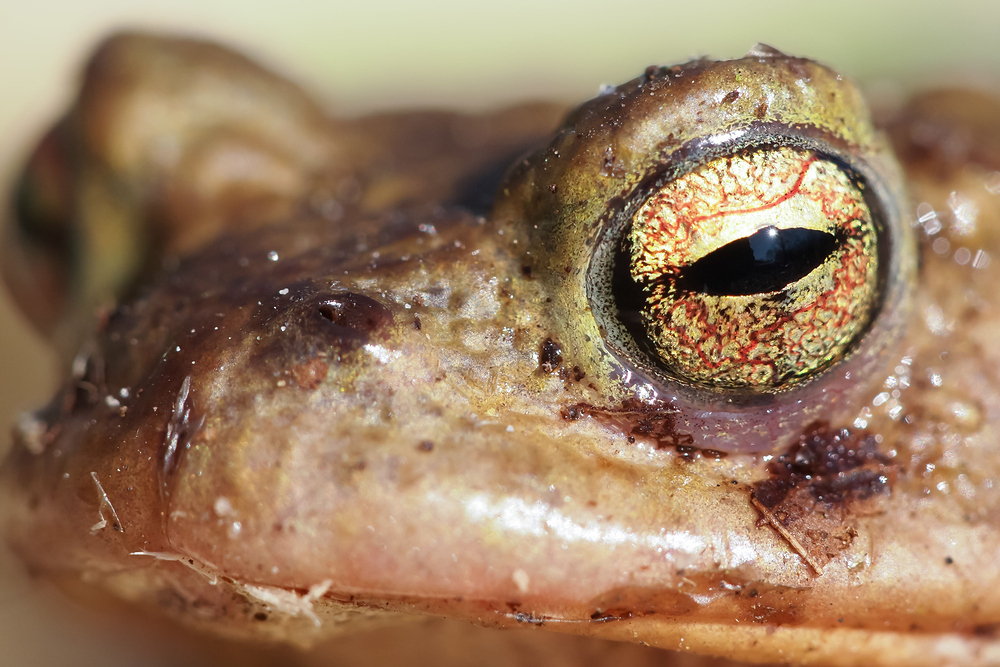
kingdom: Animalia
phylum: Chordata
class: Amphibia
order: Anura
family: Bufonidae
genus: Bufo
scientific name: Bufo bufo
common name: Common toad
